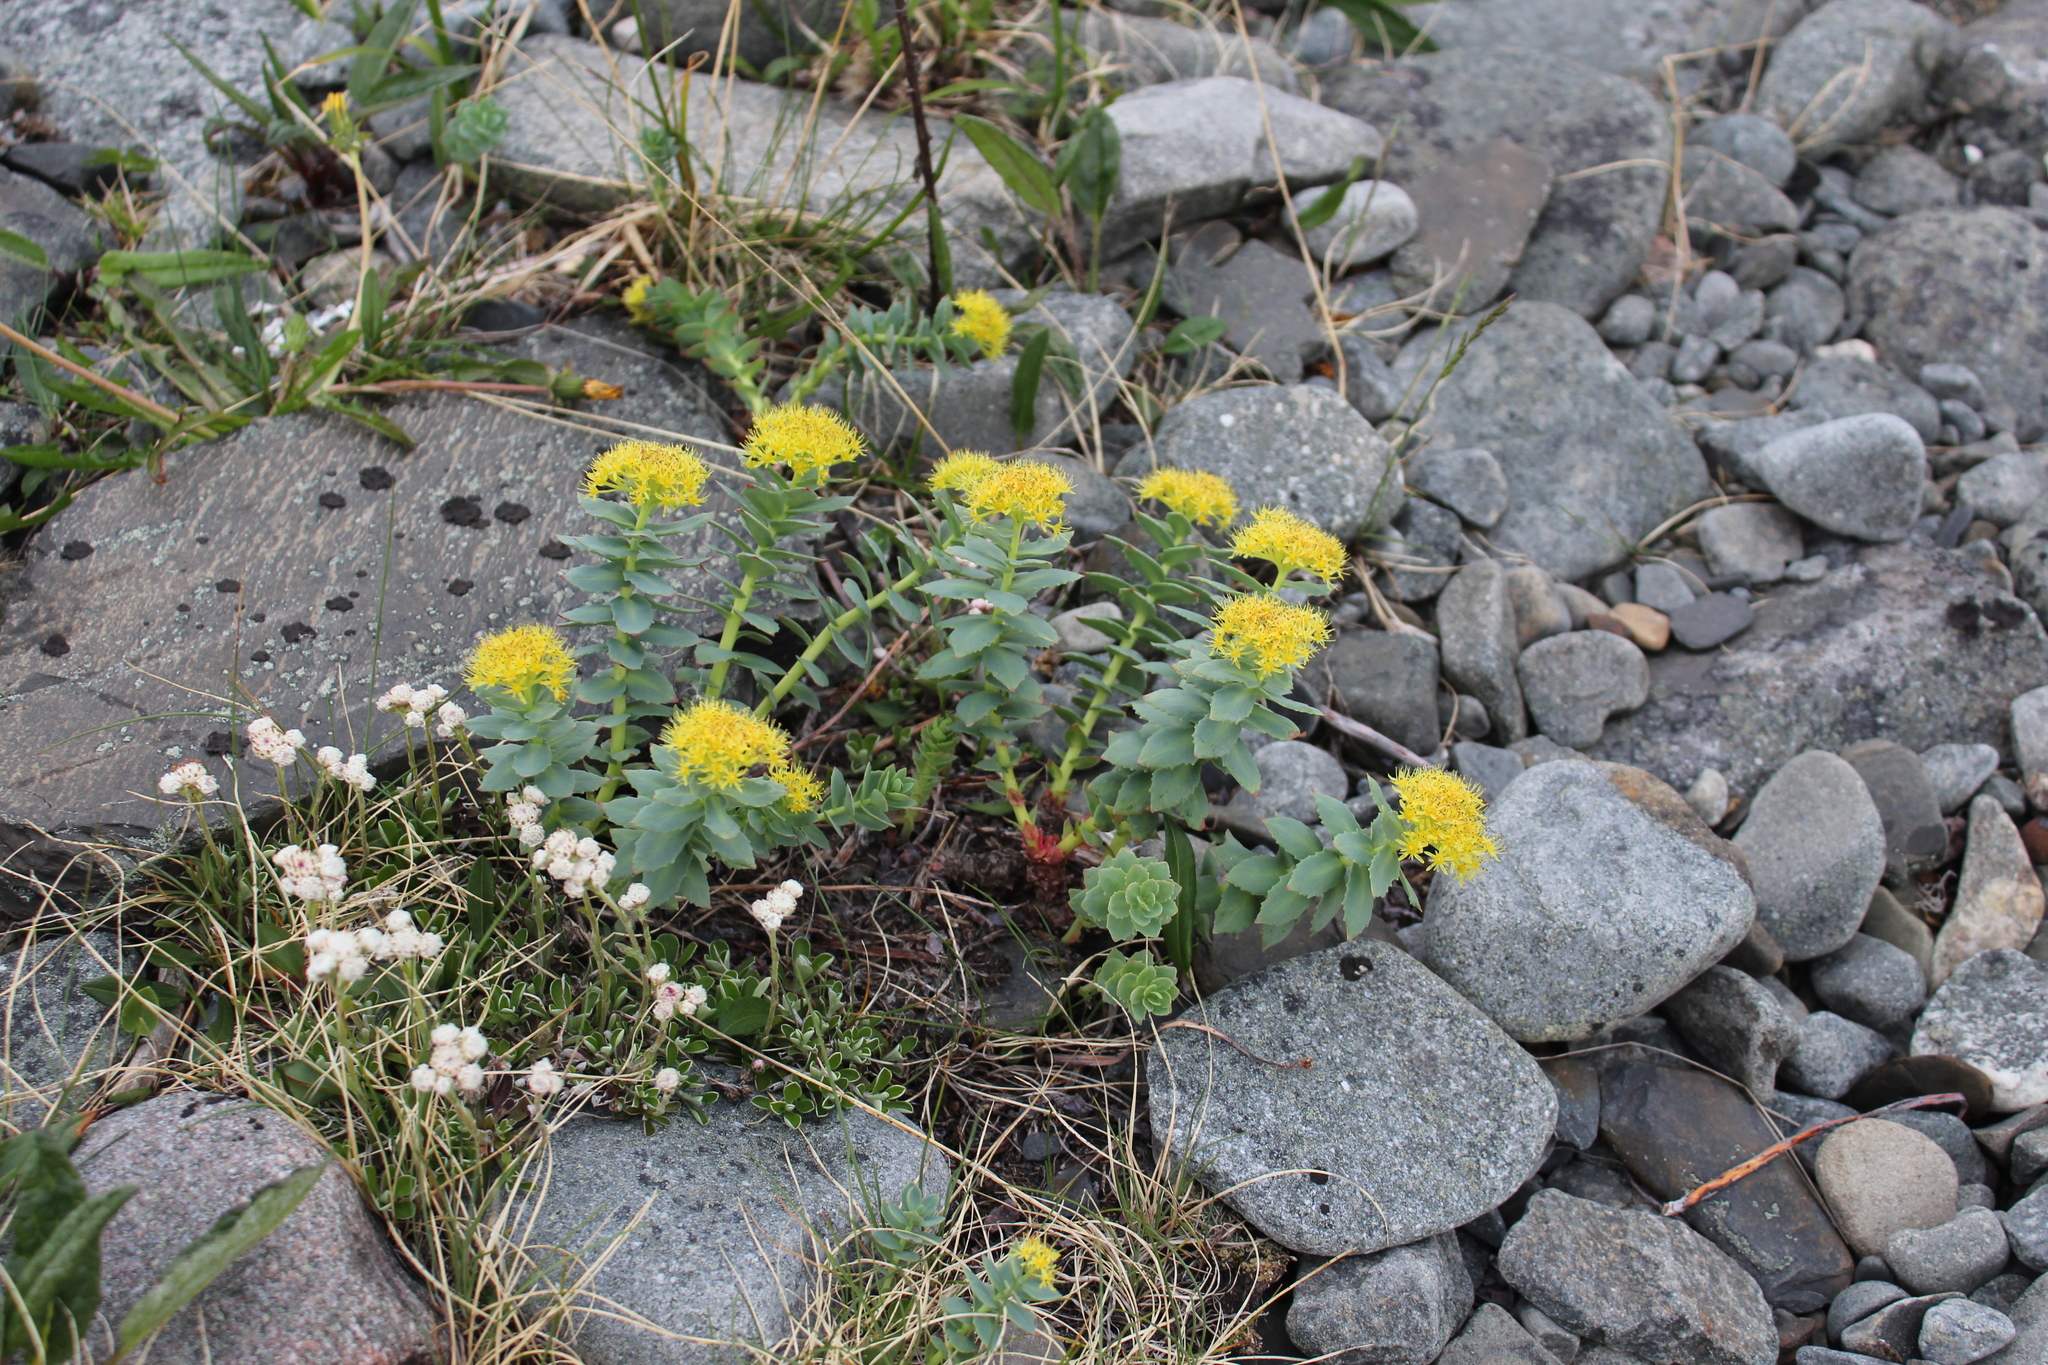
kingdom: Plantae
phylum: Tracheophyta
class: Magnoliopsida
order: Saxifragales
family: Crassulaceae
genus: Rhodiola
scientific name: Rhodiola rosea
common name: Roseroot
